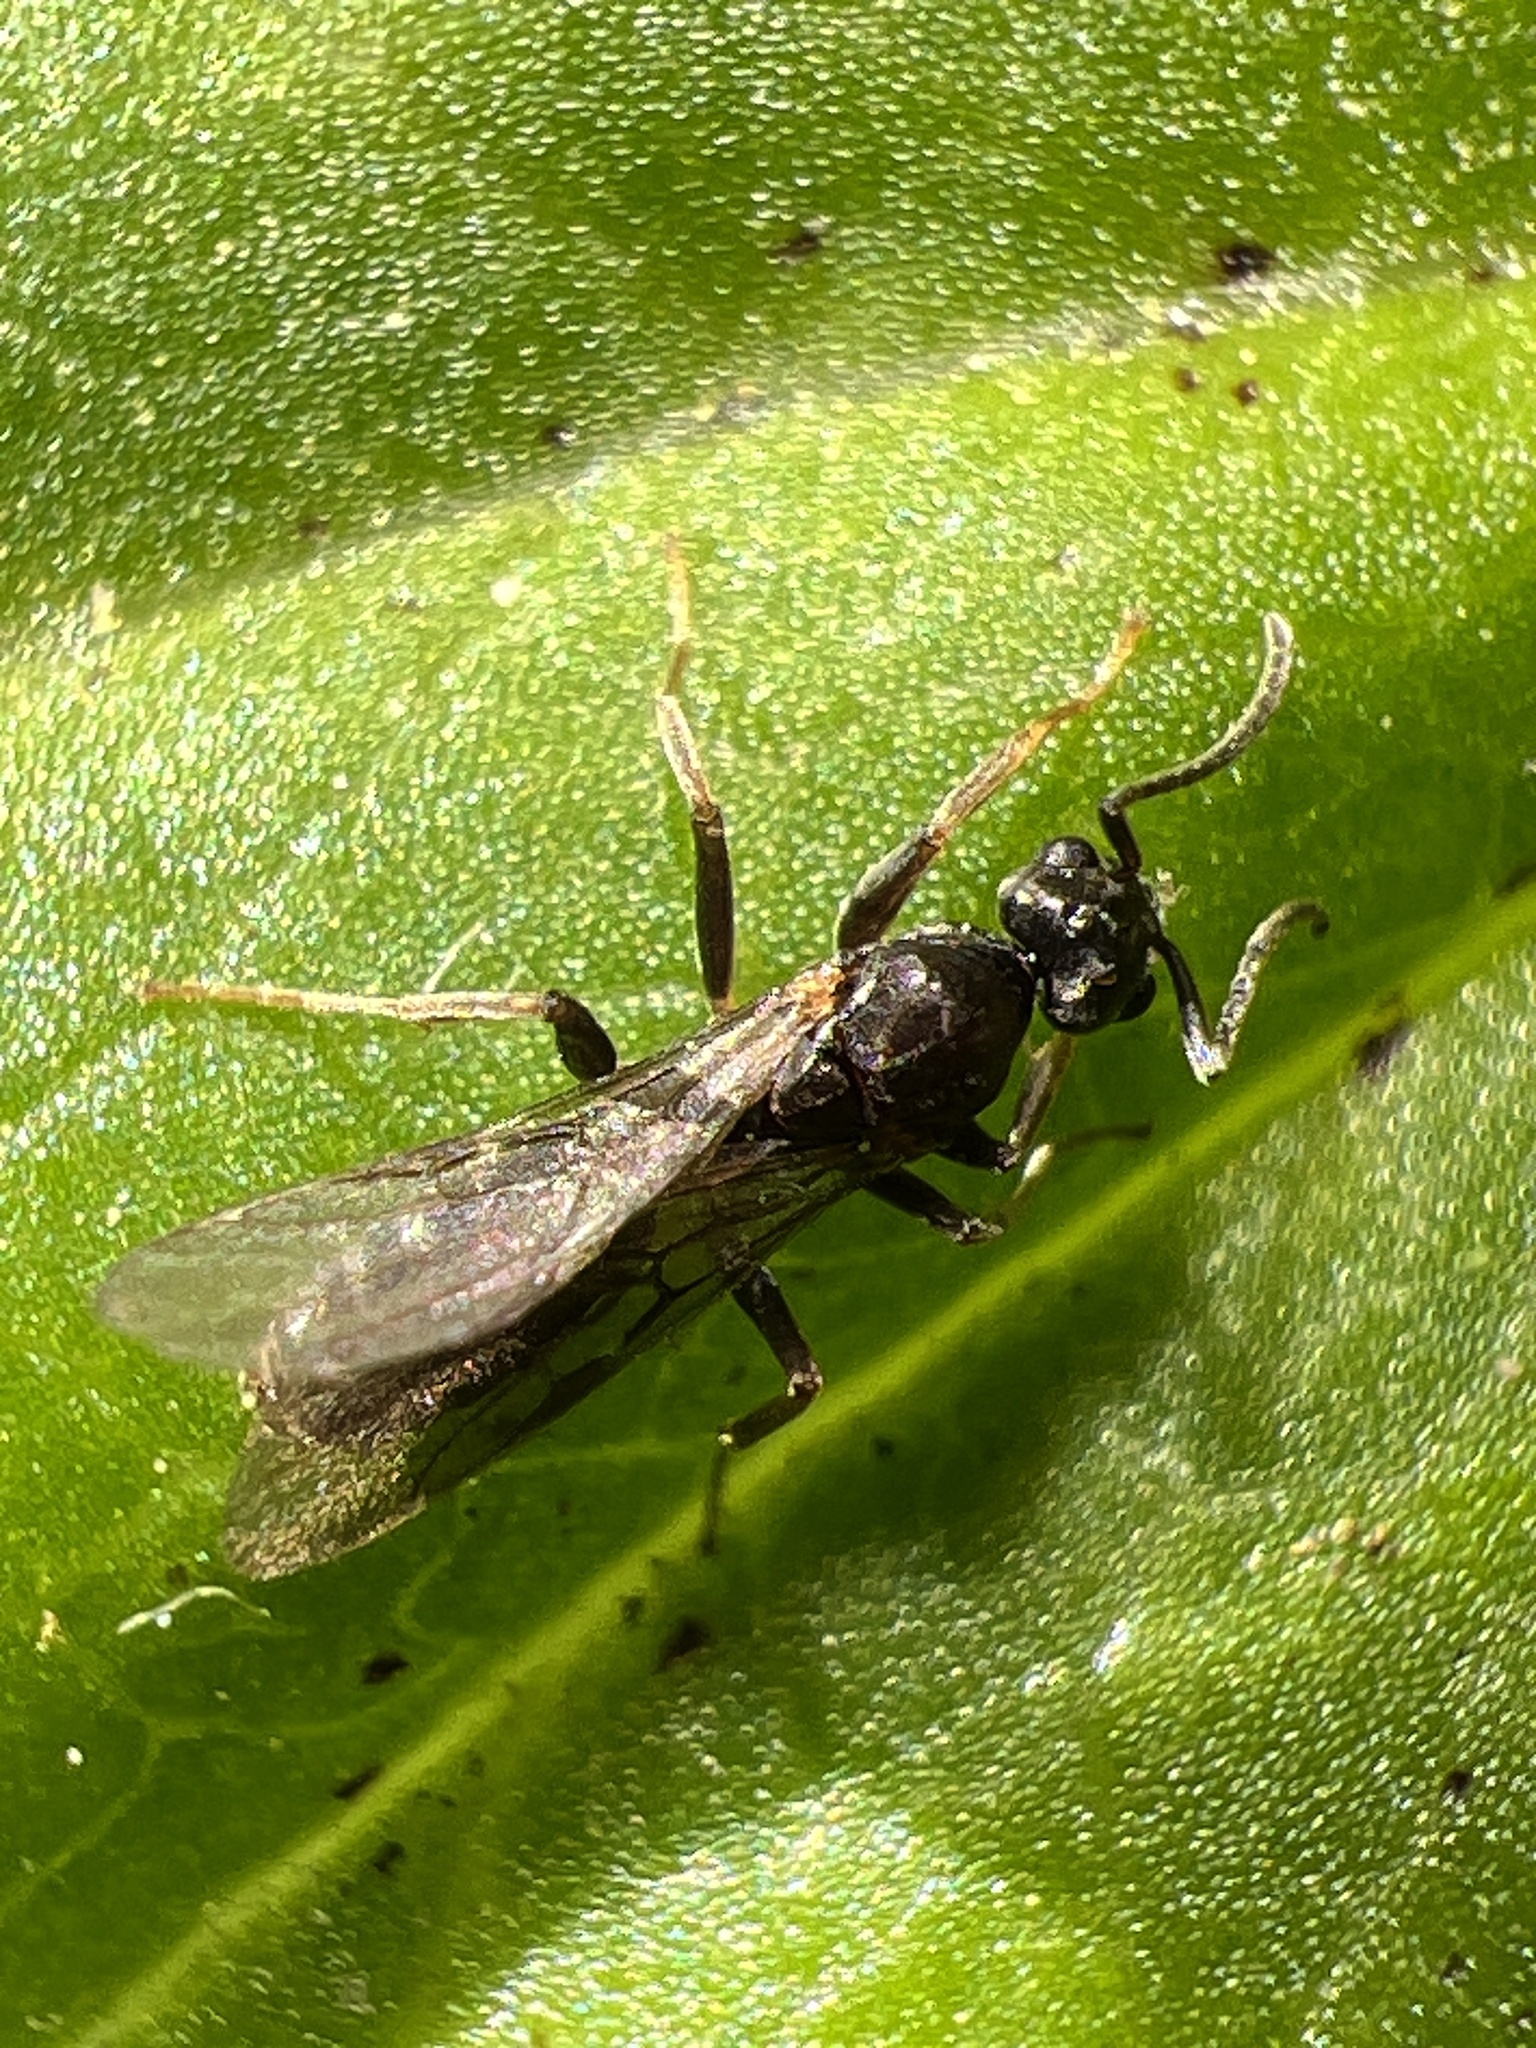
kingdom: Animalia
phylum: Arthropoda
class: Insecta
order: Hymenoptera
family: Formicidae
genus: Tapinoma
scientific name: Tapinoma sessile
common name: Odorous house ant
